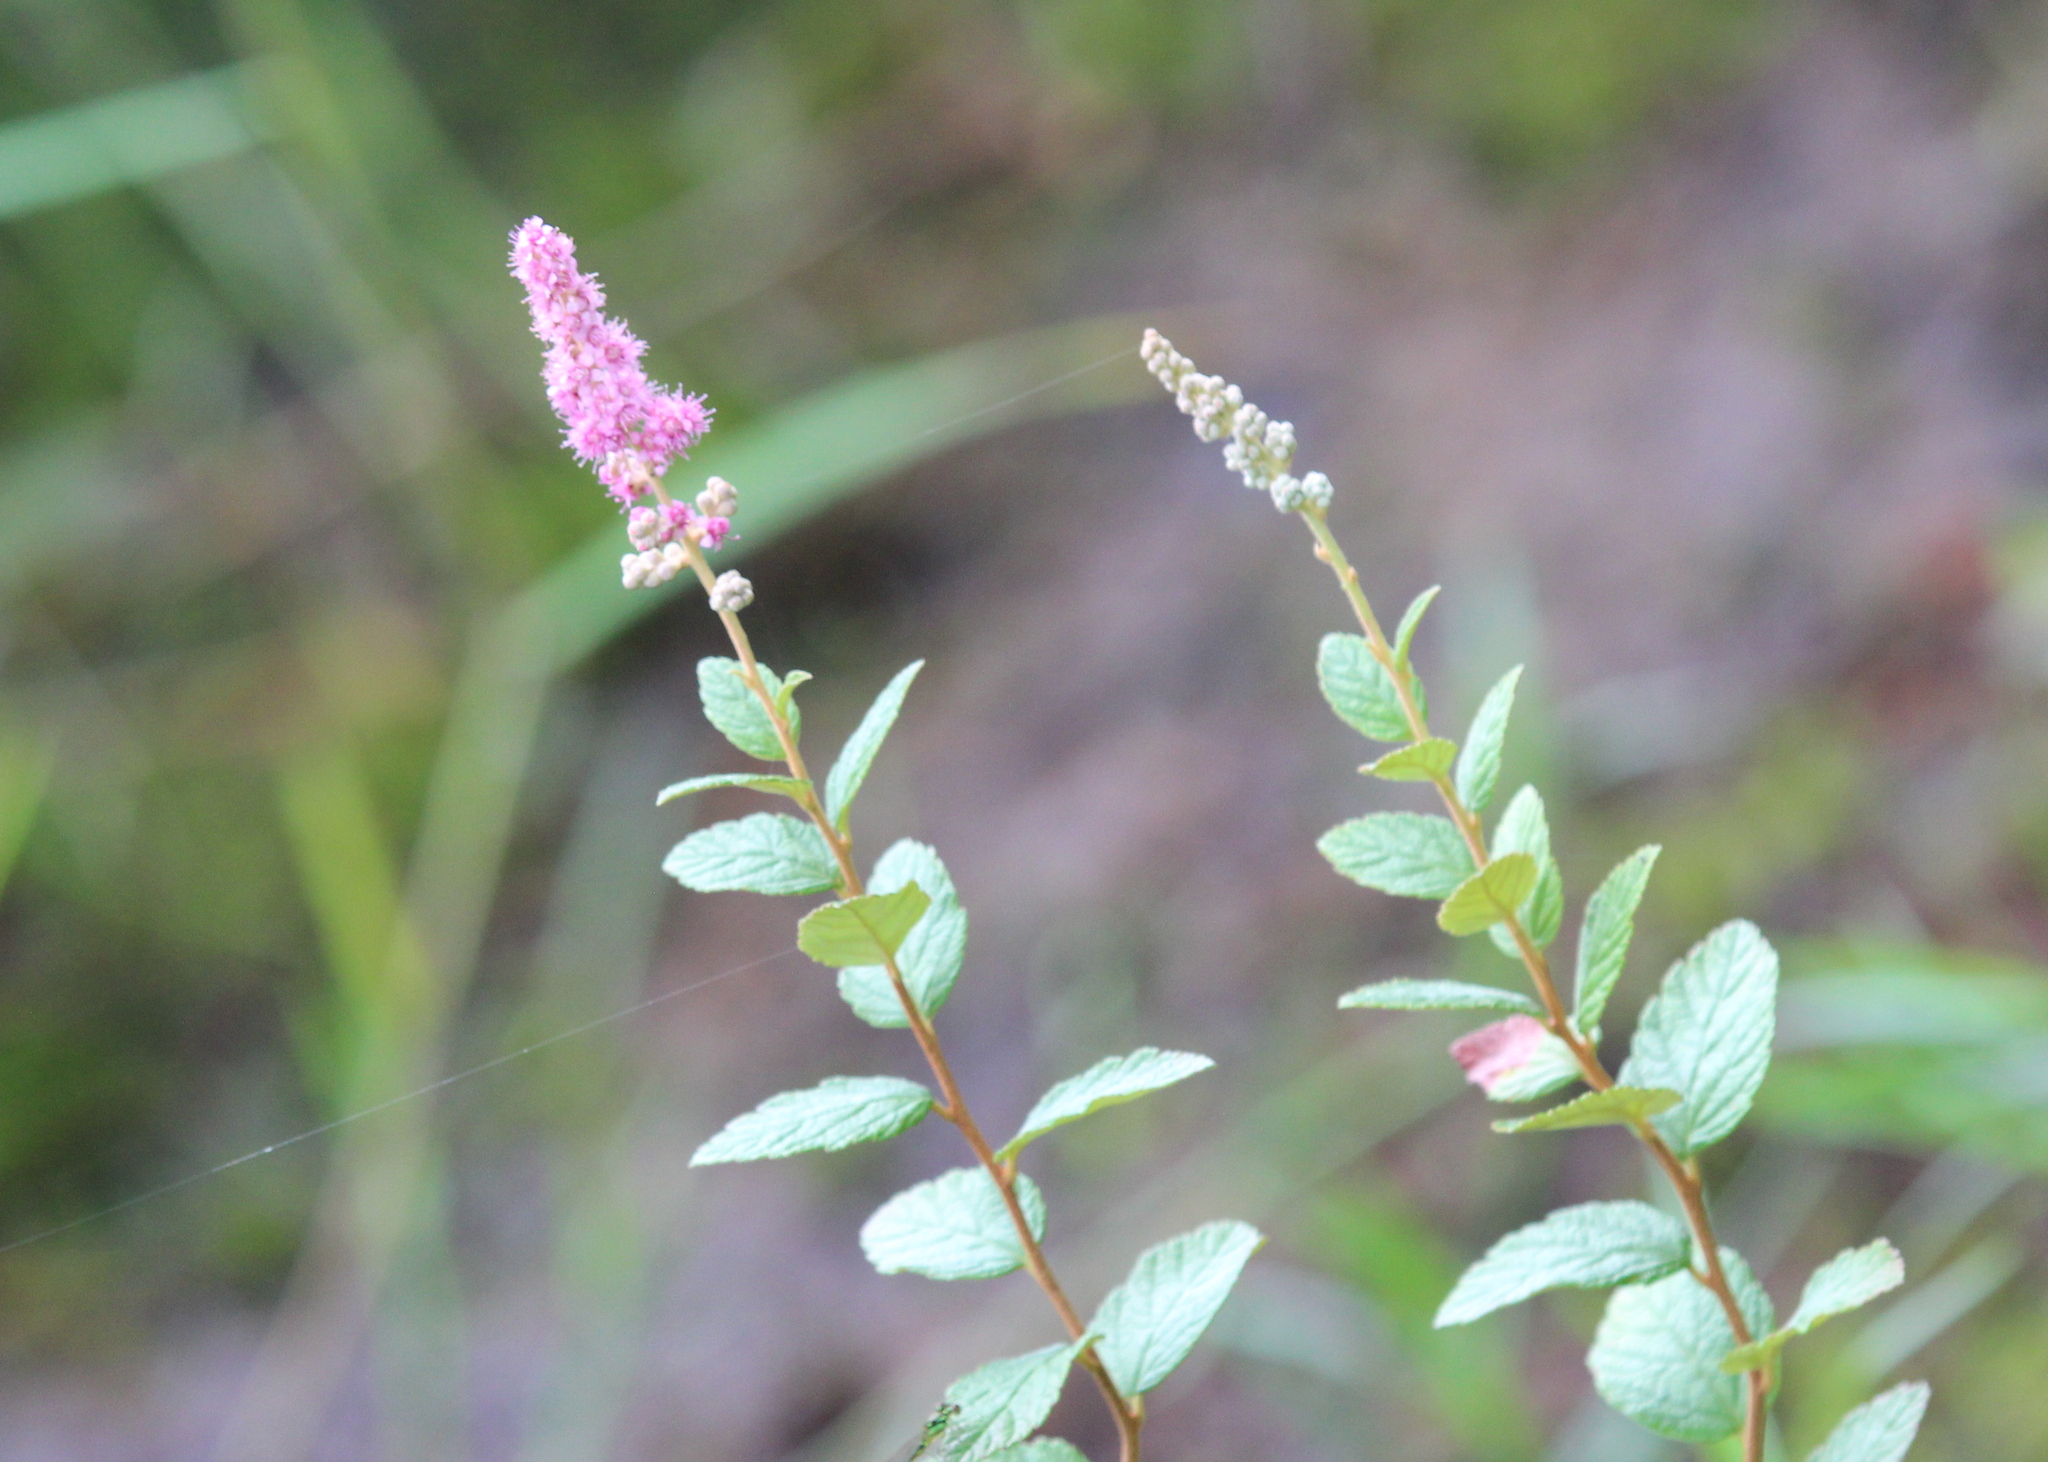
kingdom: Plantae
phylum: Tracheophyta
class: Magnoliopsida
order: Rosales
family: Rosaceae
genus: Spiraea
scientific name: Spiraea tomentosa
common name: Hardhack
